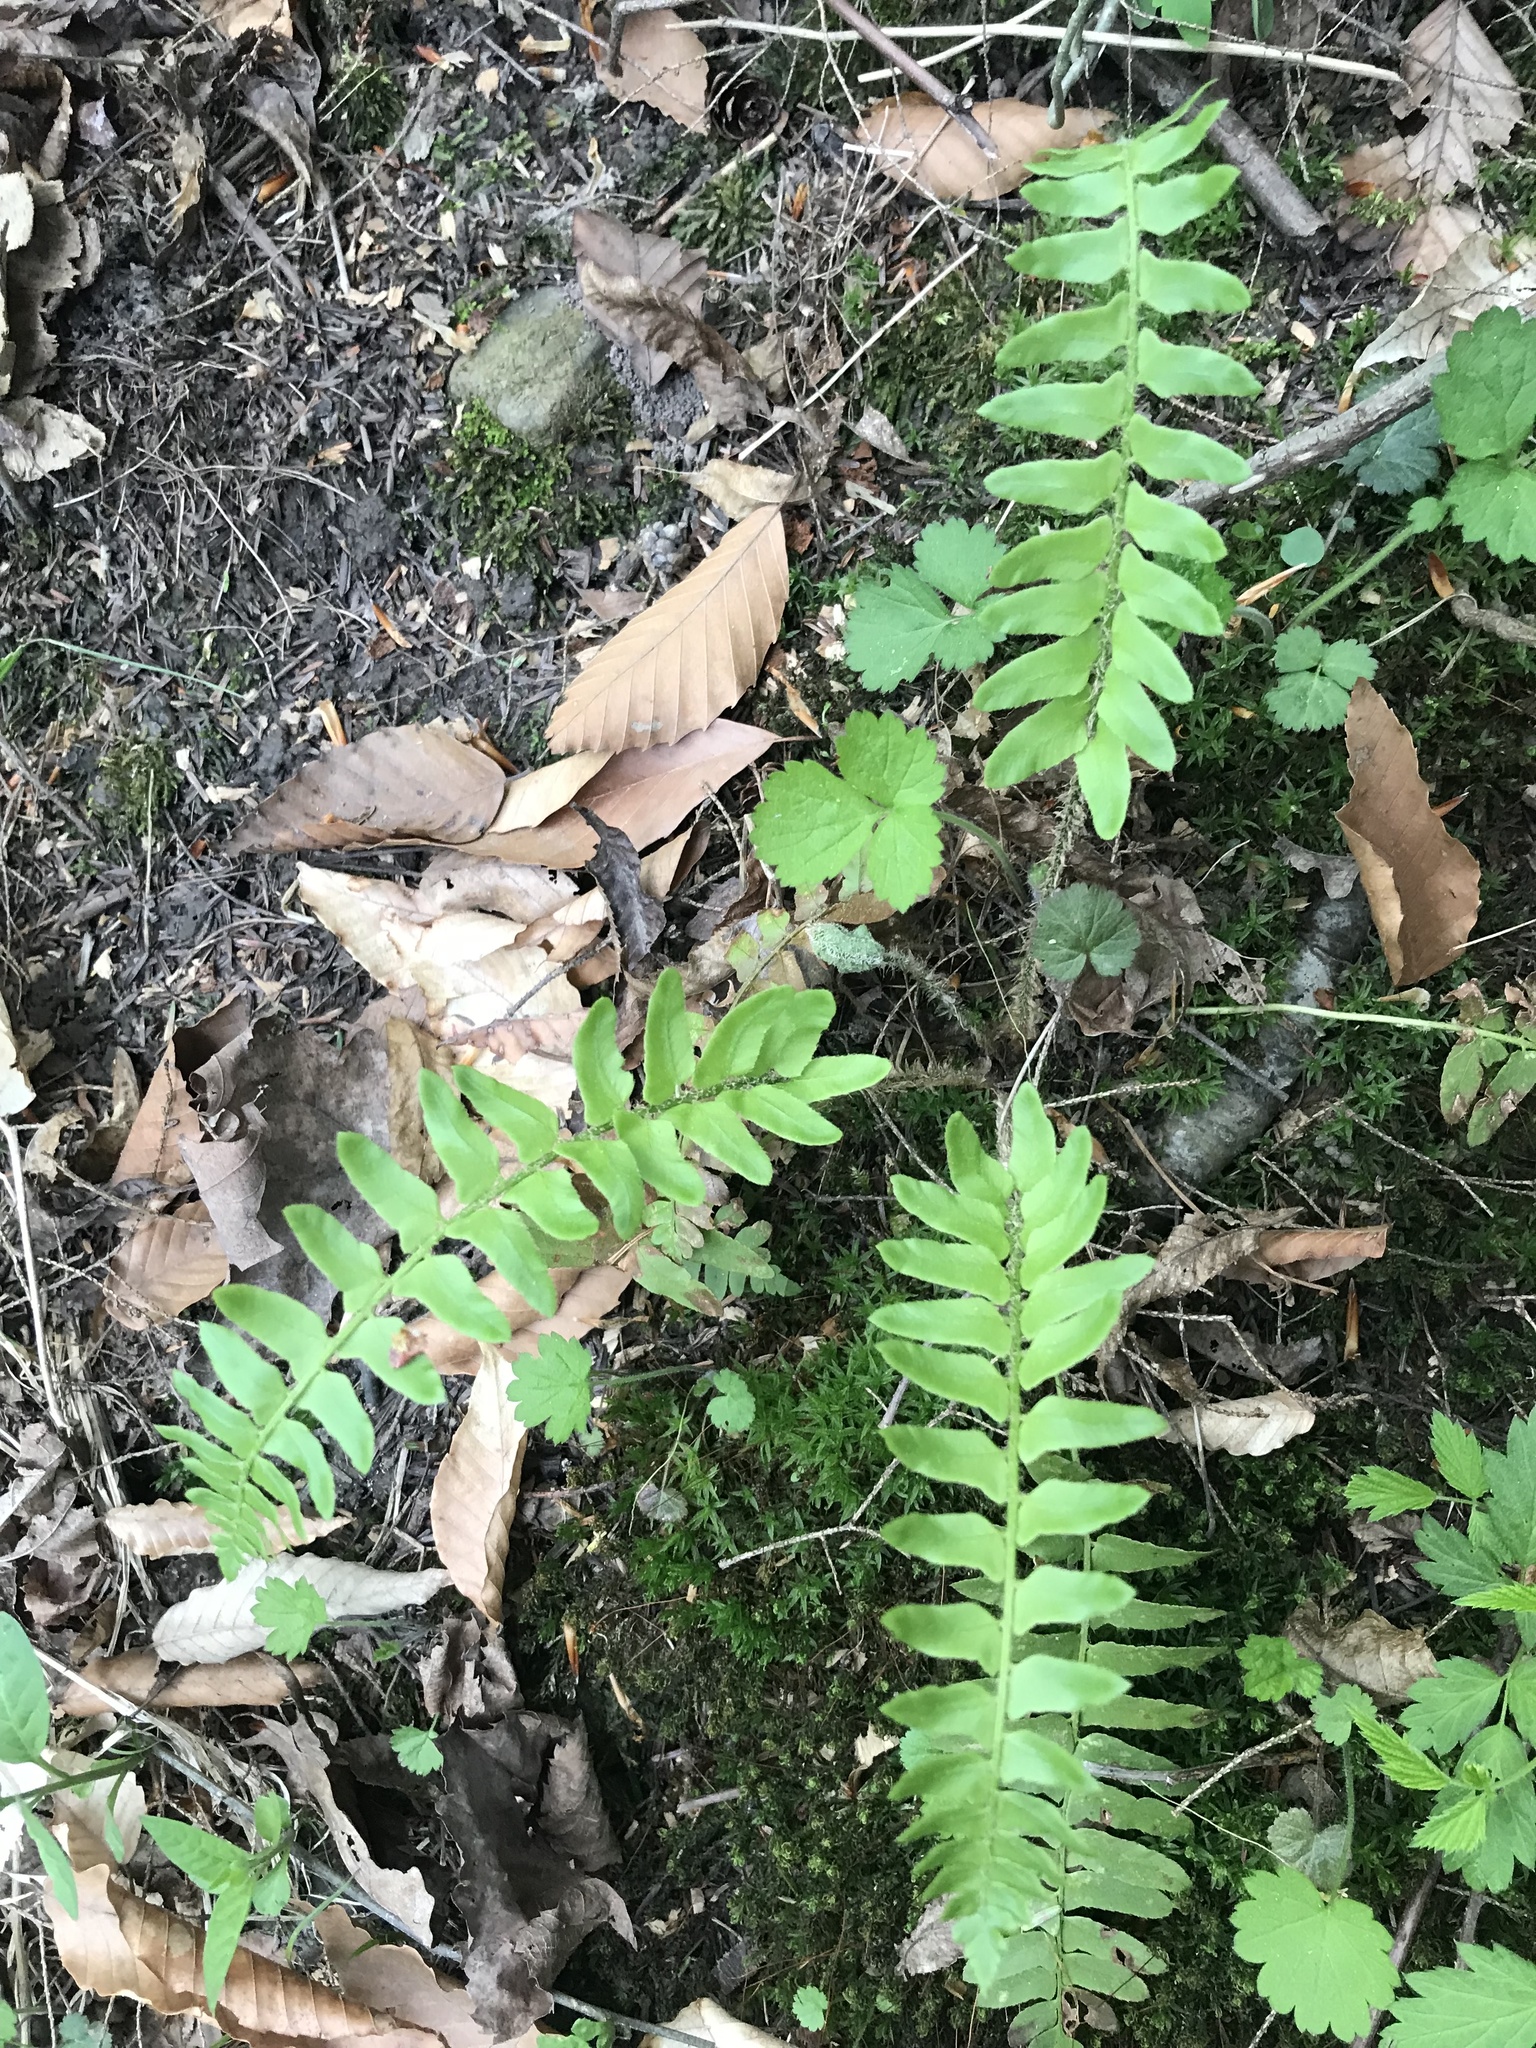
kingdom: Plantae
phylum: Tracheophyta
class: Polypodiopsida
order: Polypodiales
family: Dryopteridaceae
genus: Polystichum
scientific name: Polystichum acrostichoides
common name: Christmas fern
